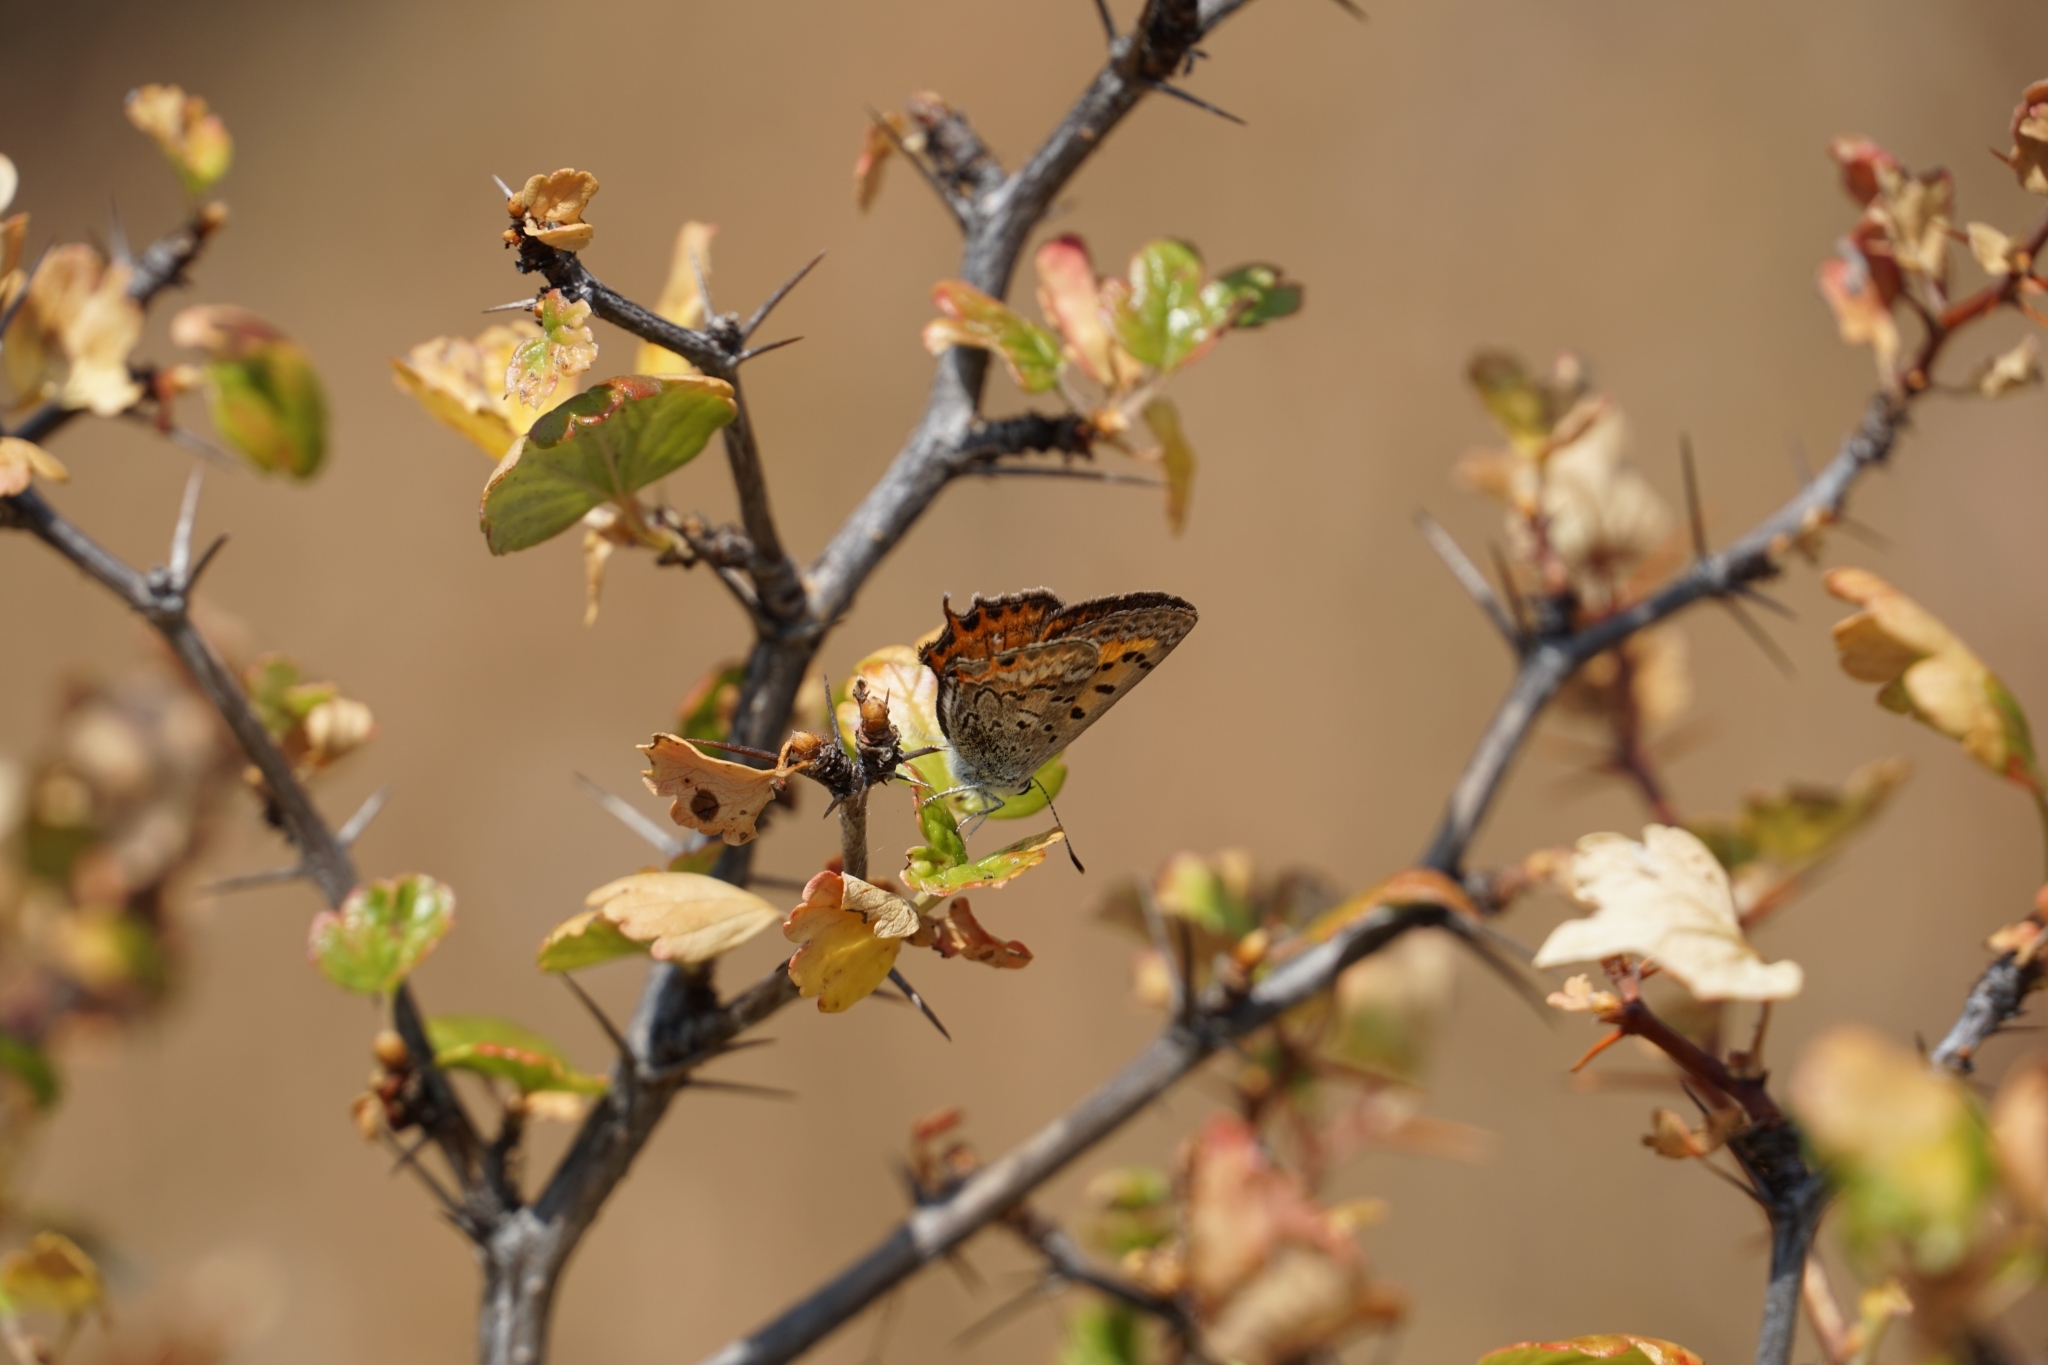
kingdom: Animalia
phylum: Arthropoda
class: Insecta
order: Lepidoptera
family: Lycaenidae
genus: Tharsalea
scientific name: Tharsalea arota
